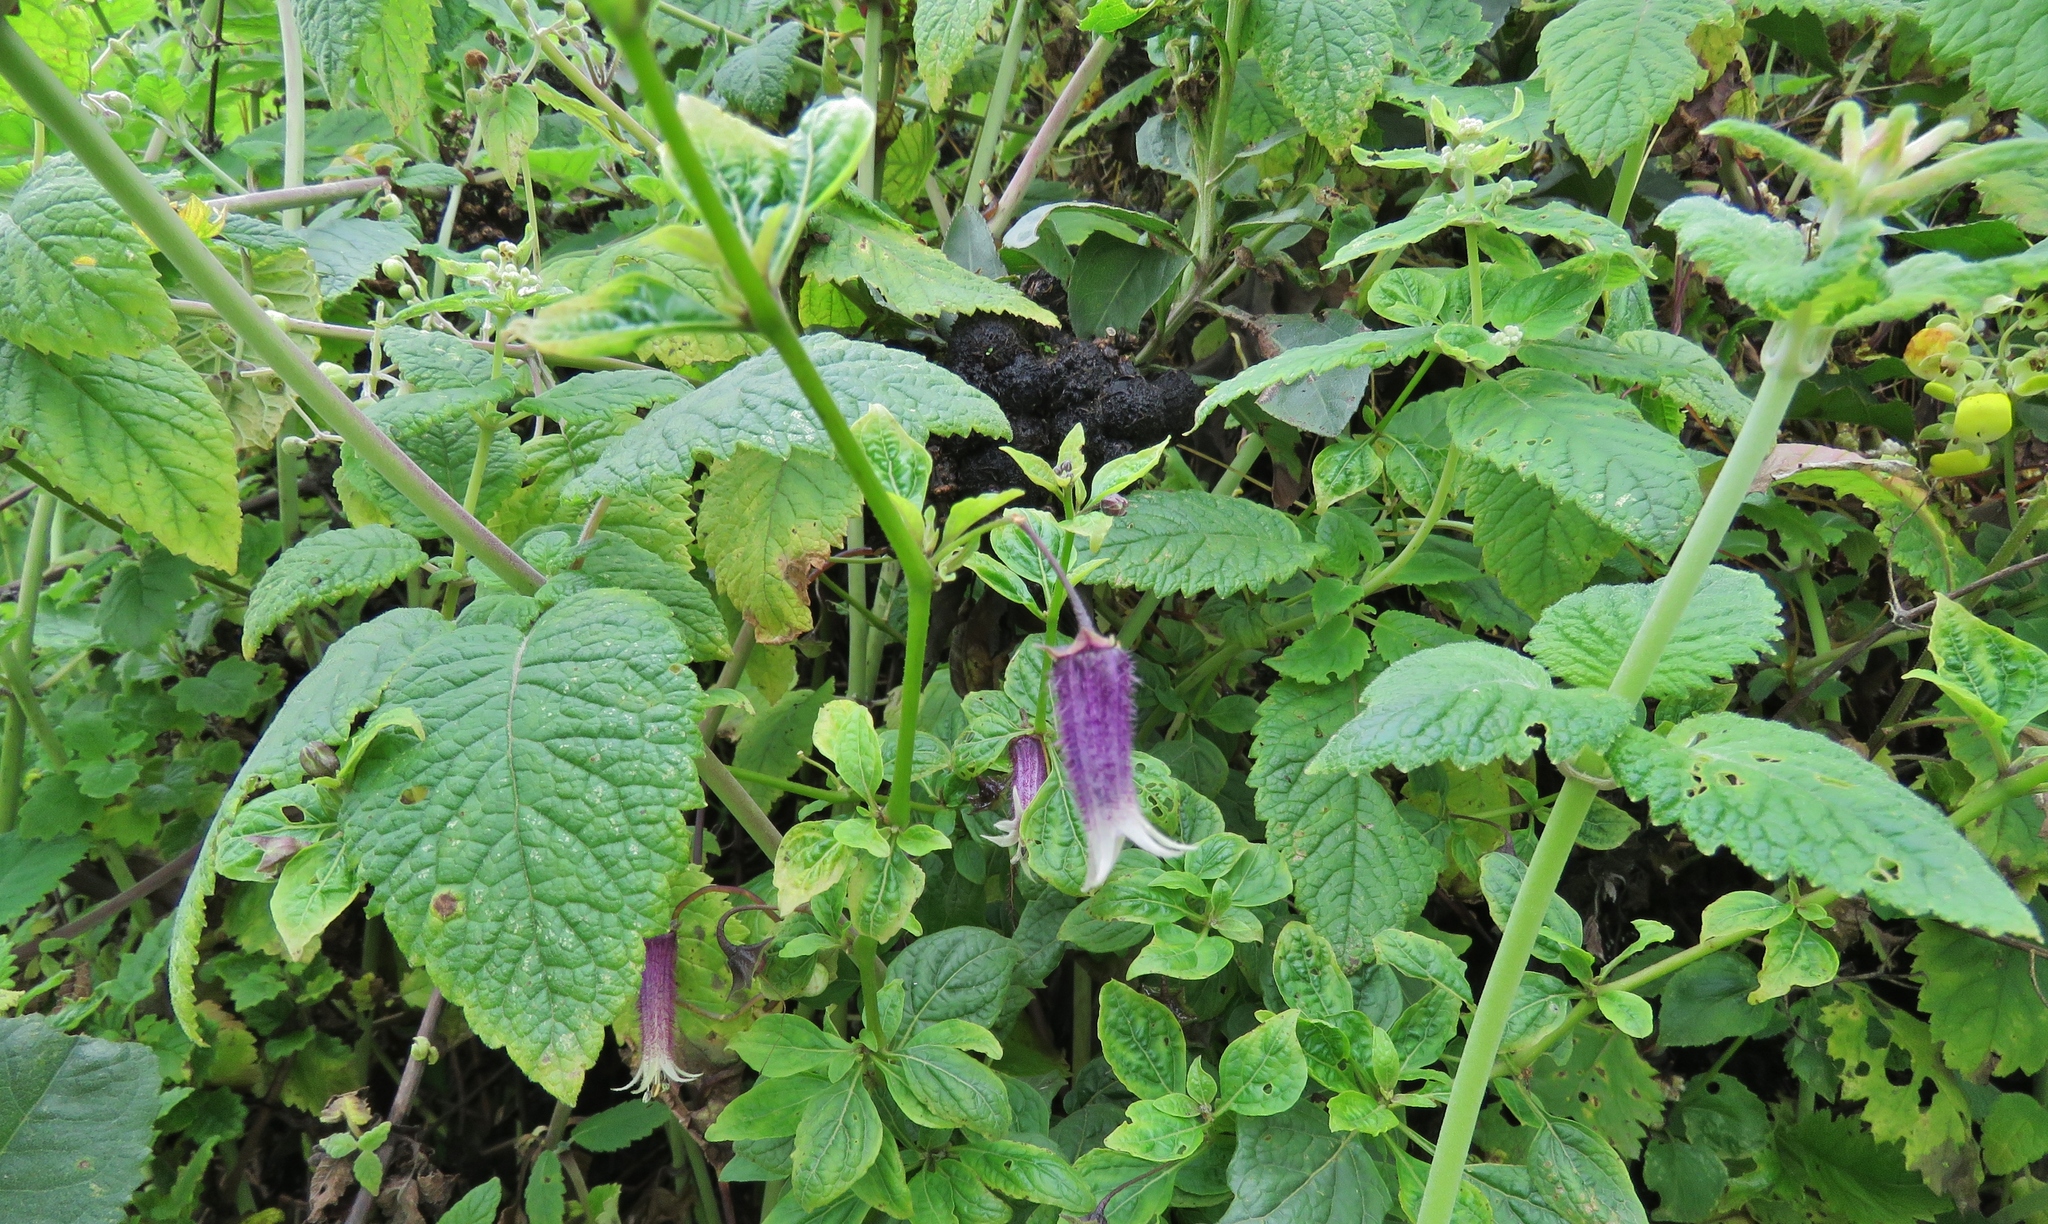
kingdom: Plantae
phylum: Tracheophyta
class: Magnoliopsida
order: Solanales
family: Solanaceae
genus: Jaltomata
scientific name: Jaltomata bicolor
